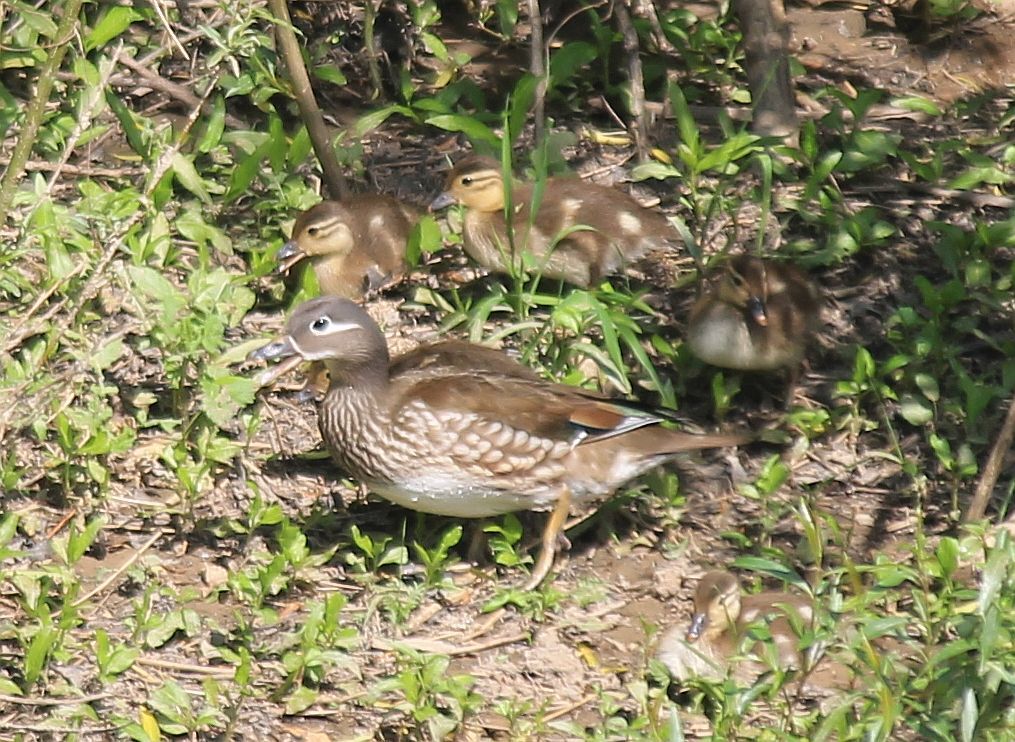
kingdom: Animalia
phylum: Chordata
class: Aves
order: Anseriformes
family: Anatidae
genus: Aix
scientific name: Aix galericulata
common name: Mandarin duck
